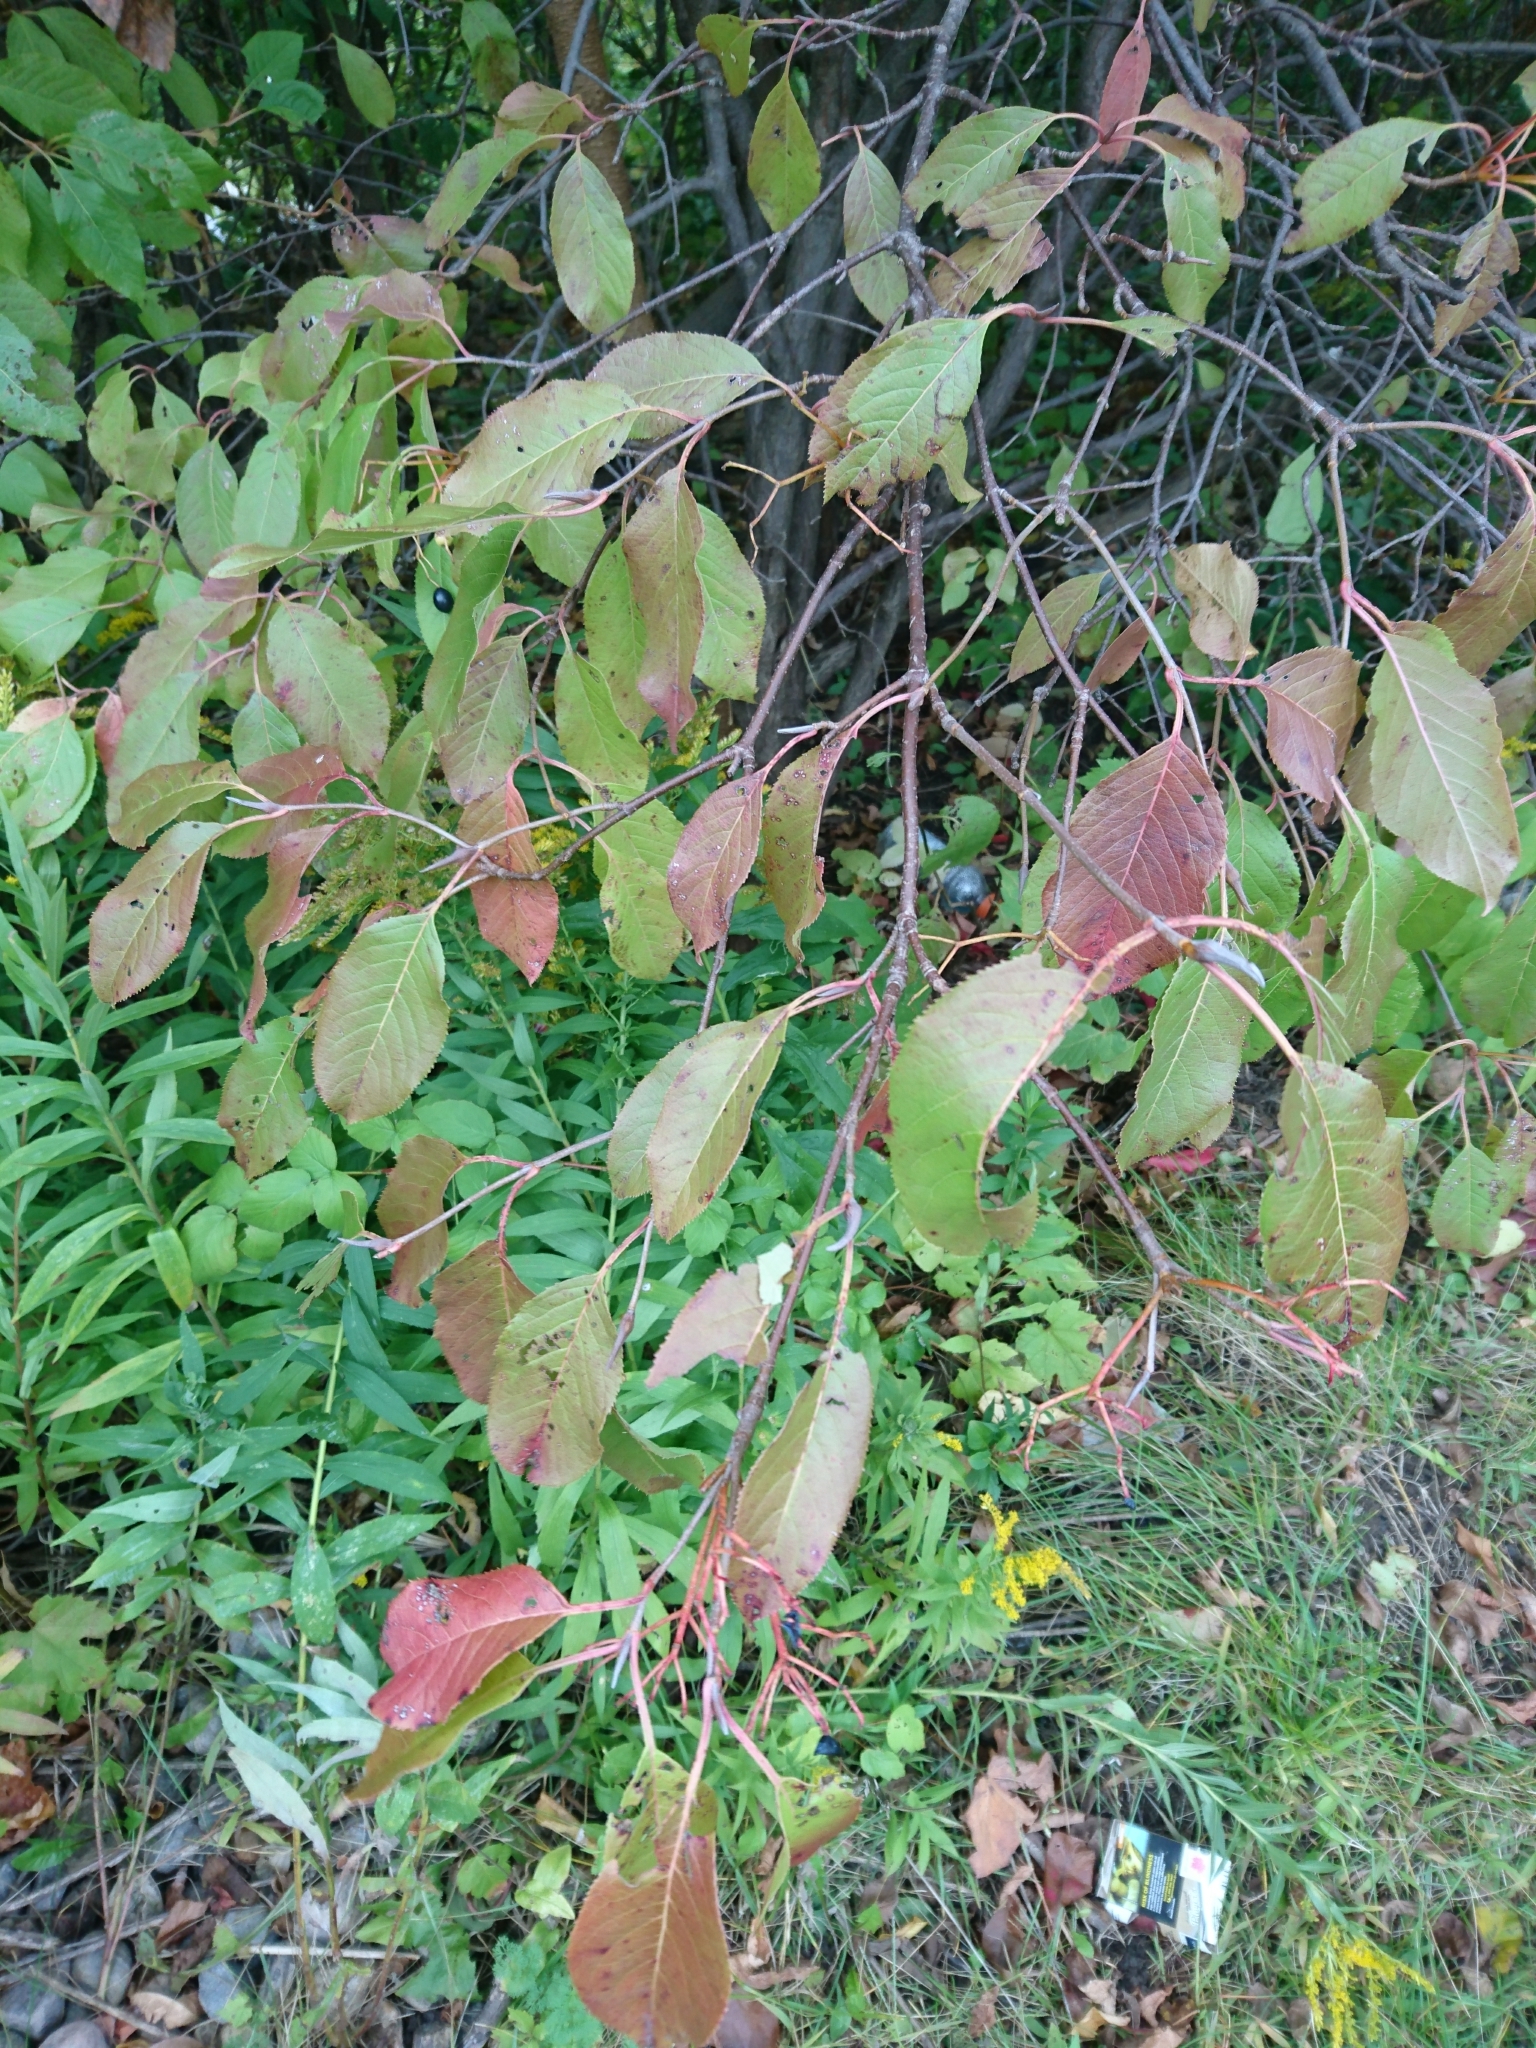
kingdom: Plantae
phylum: Tracheophyta
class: Magnoliopsida
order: Dipsacales
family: Viburnaceae
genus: Viburnum
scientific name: Viburnum lentago
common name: Black haw
